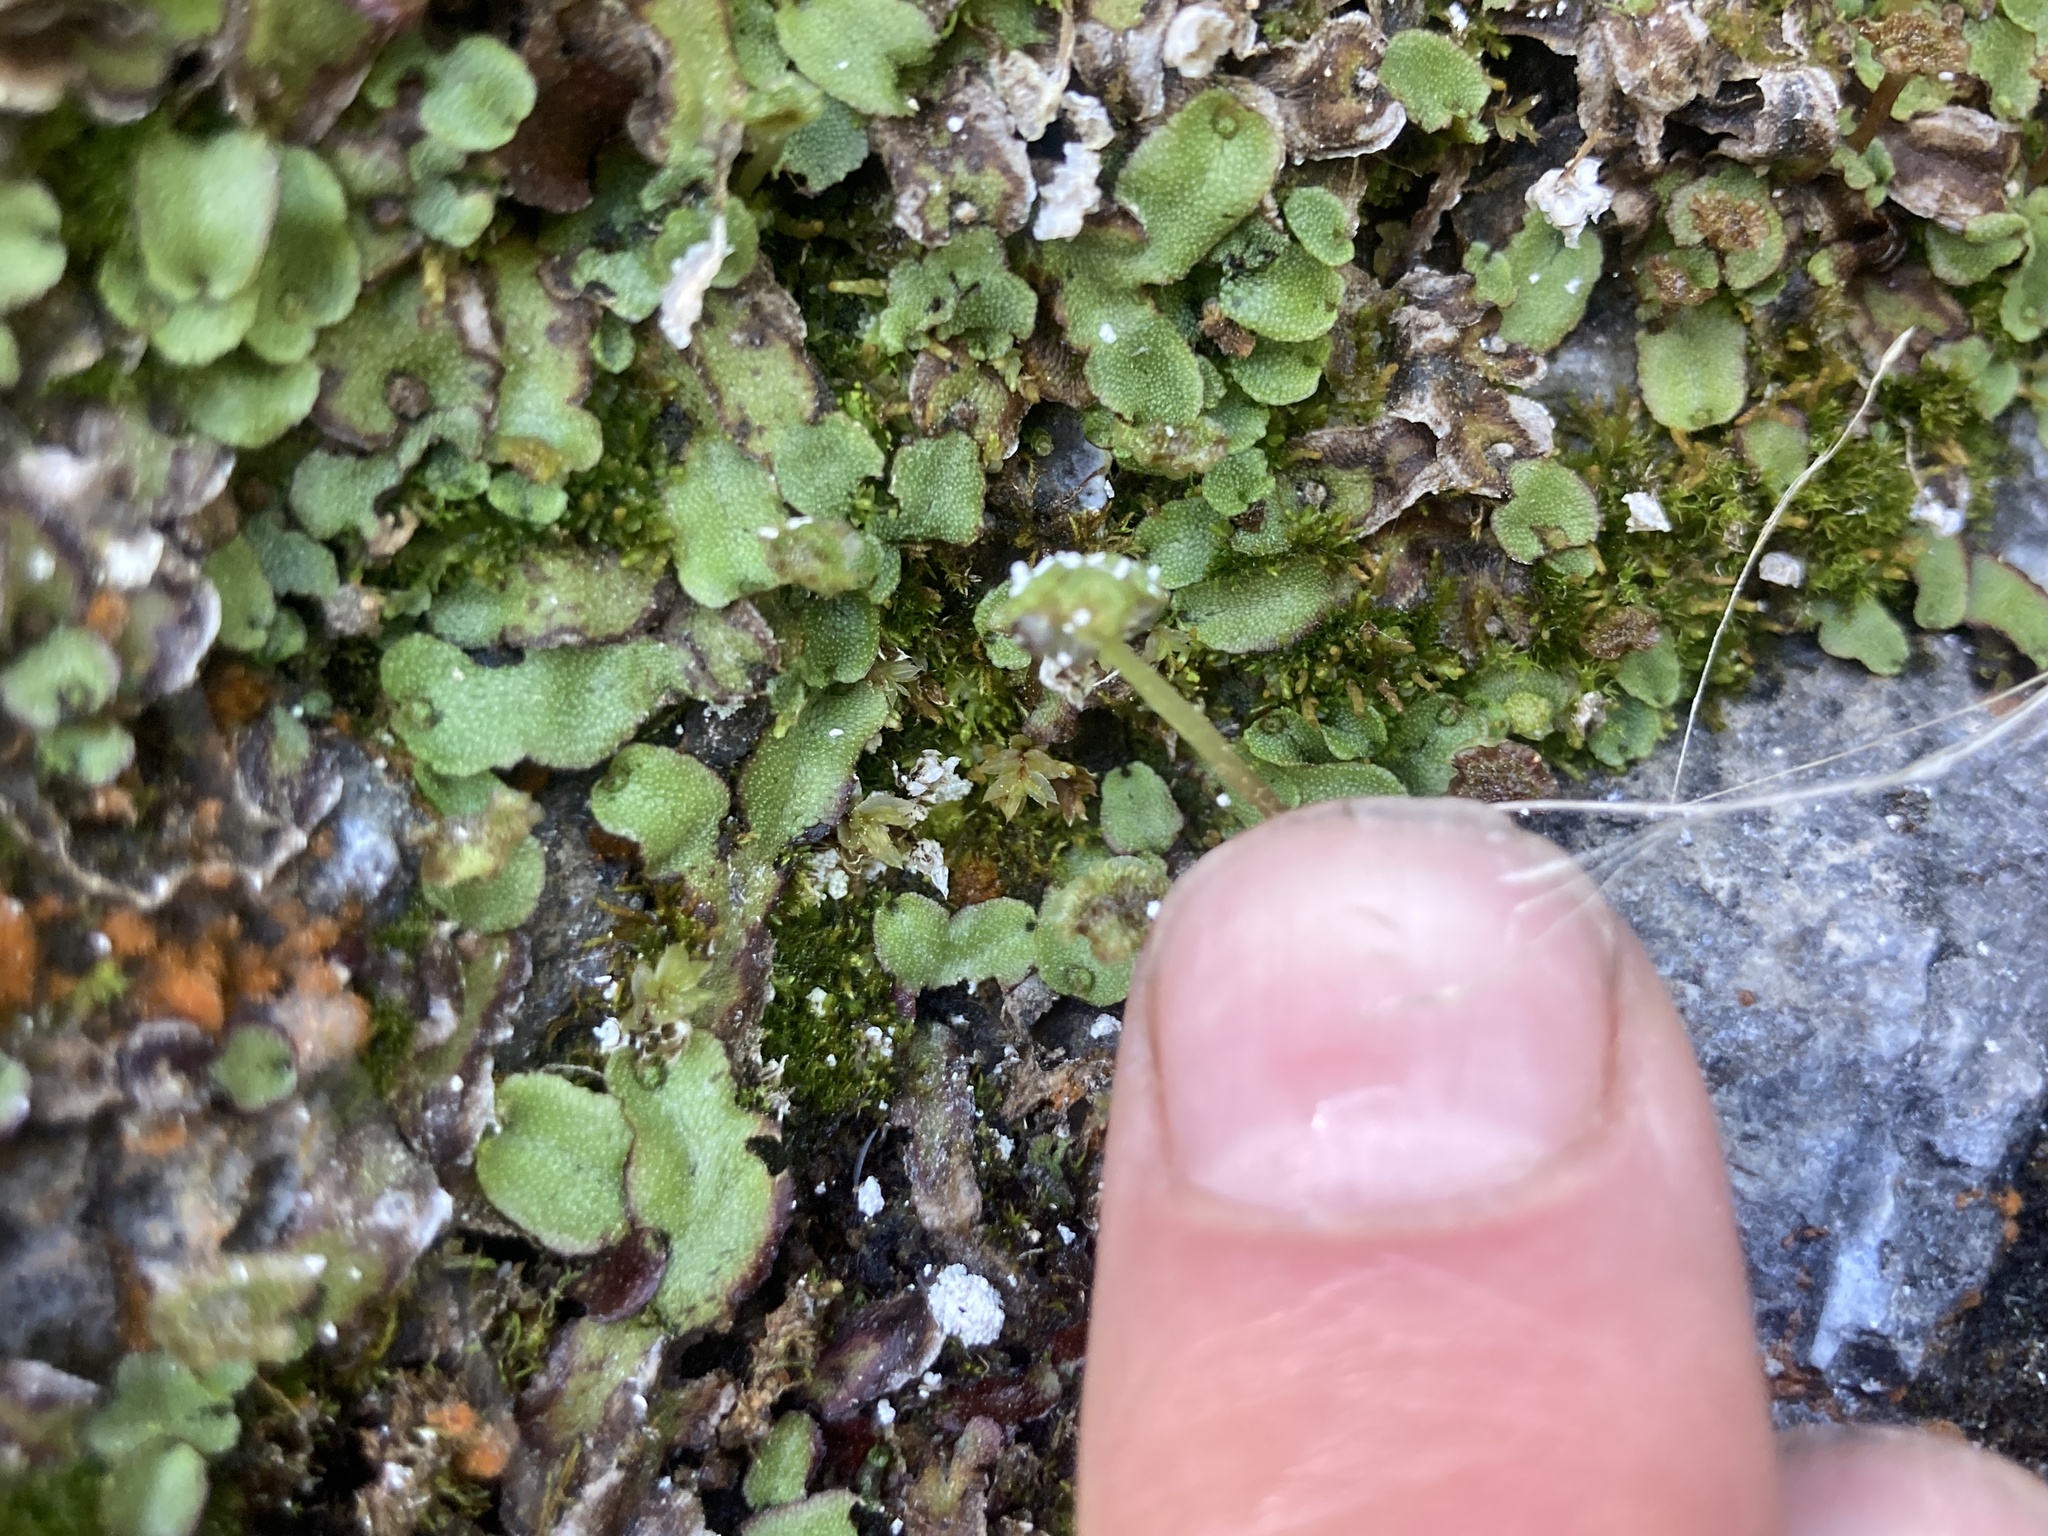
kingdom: Plantae
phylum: Marchantiophyta
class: Marchantiopsida
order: Marchantiales
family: Marchantiaceae
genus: Marchantia
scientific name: Marchantia quadrata
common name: Narrow mushroom-headed liverwort
